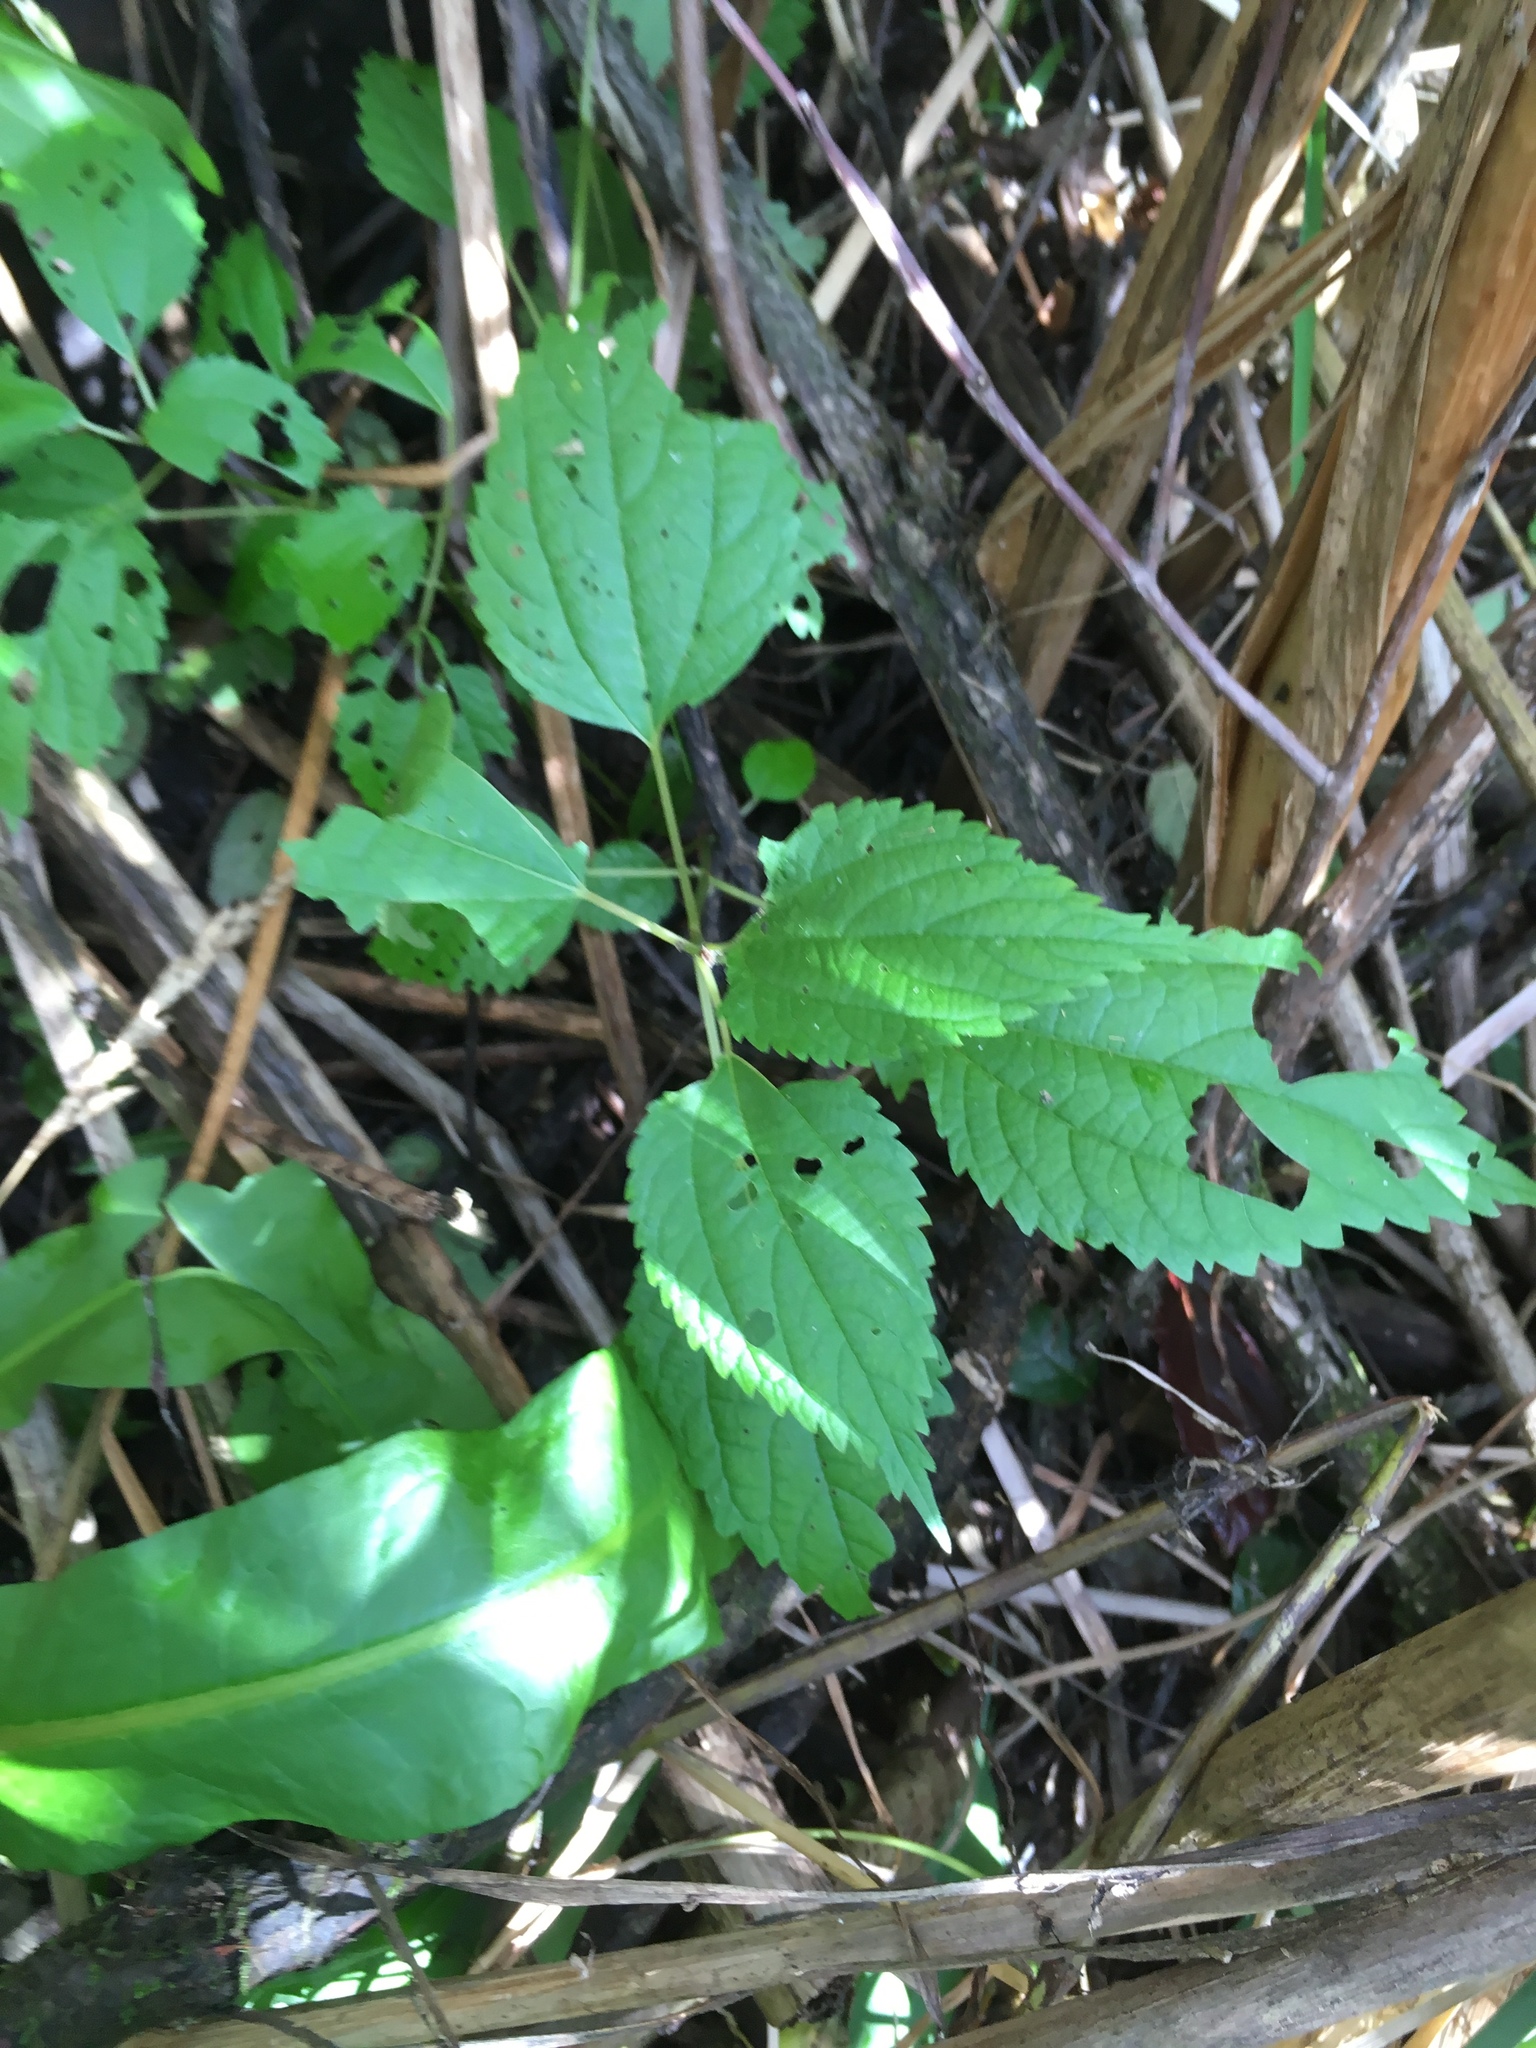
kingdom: Plantae
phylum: Tracheophyta
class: Magnoliopsida
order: Rosales
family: Urticaceae
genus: Boehmeria
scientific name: Boehmeria cylindrica
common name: Bog-hemp
